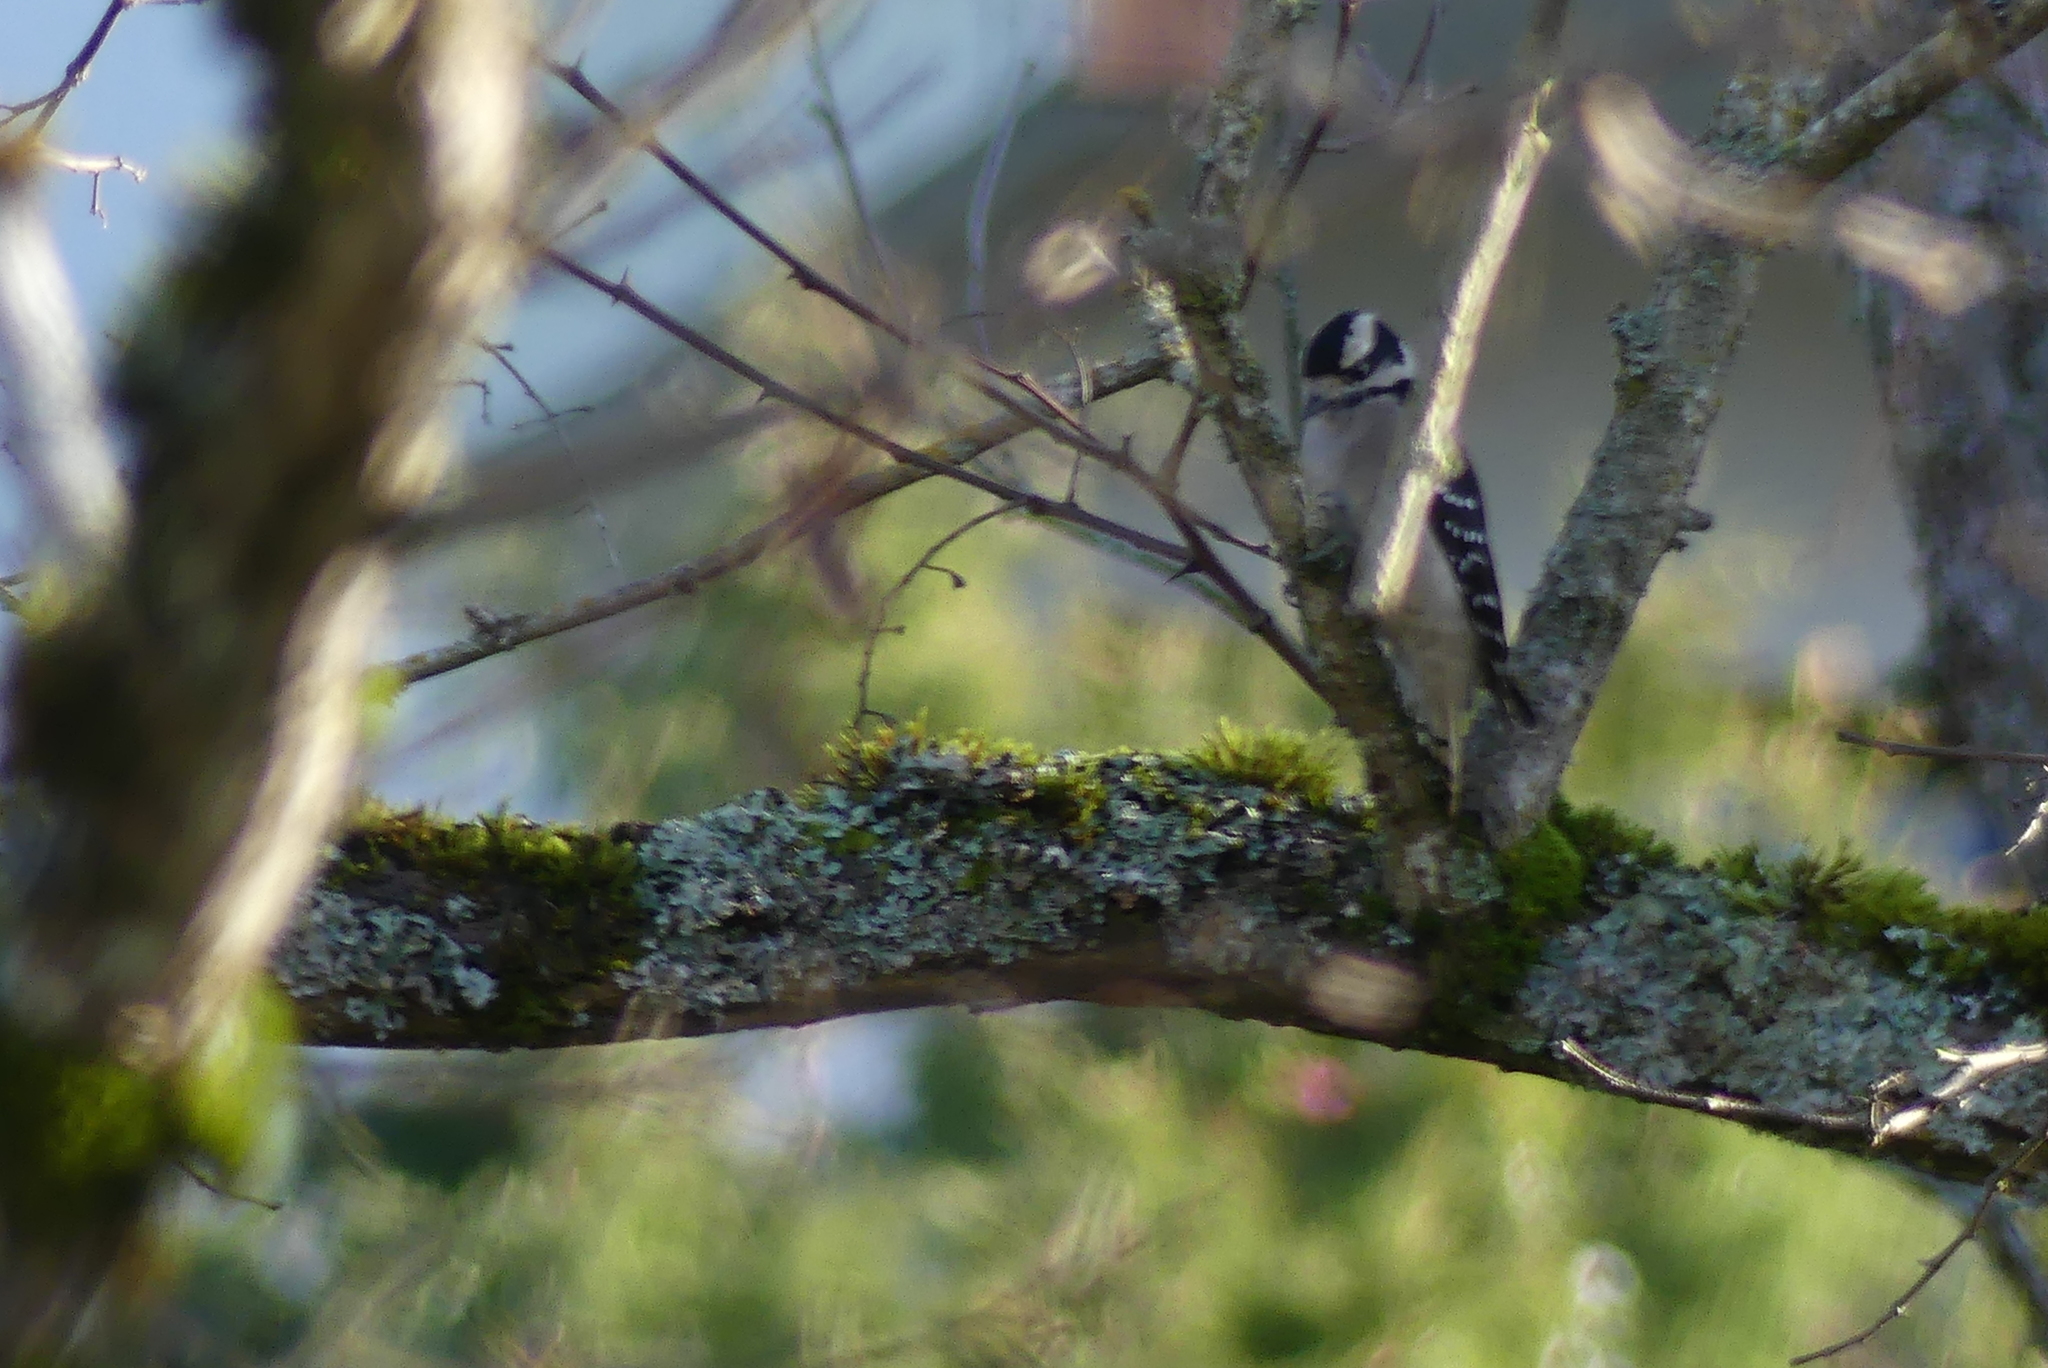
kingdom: Animalia
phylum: Chordata
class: Aves
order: Piciformes
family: Picidae
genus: Dryobates
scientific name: Dryobates pubescens
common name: Downy woodpecker
